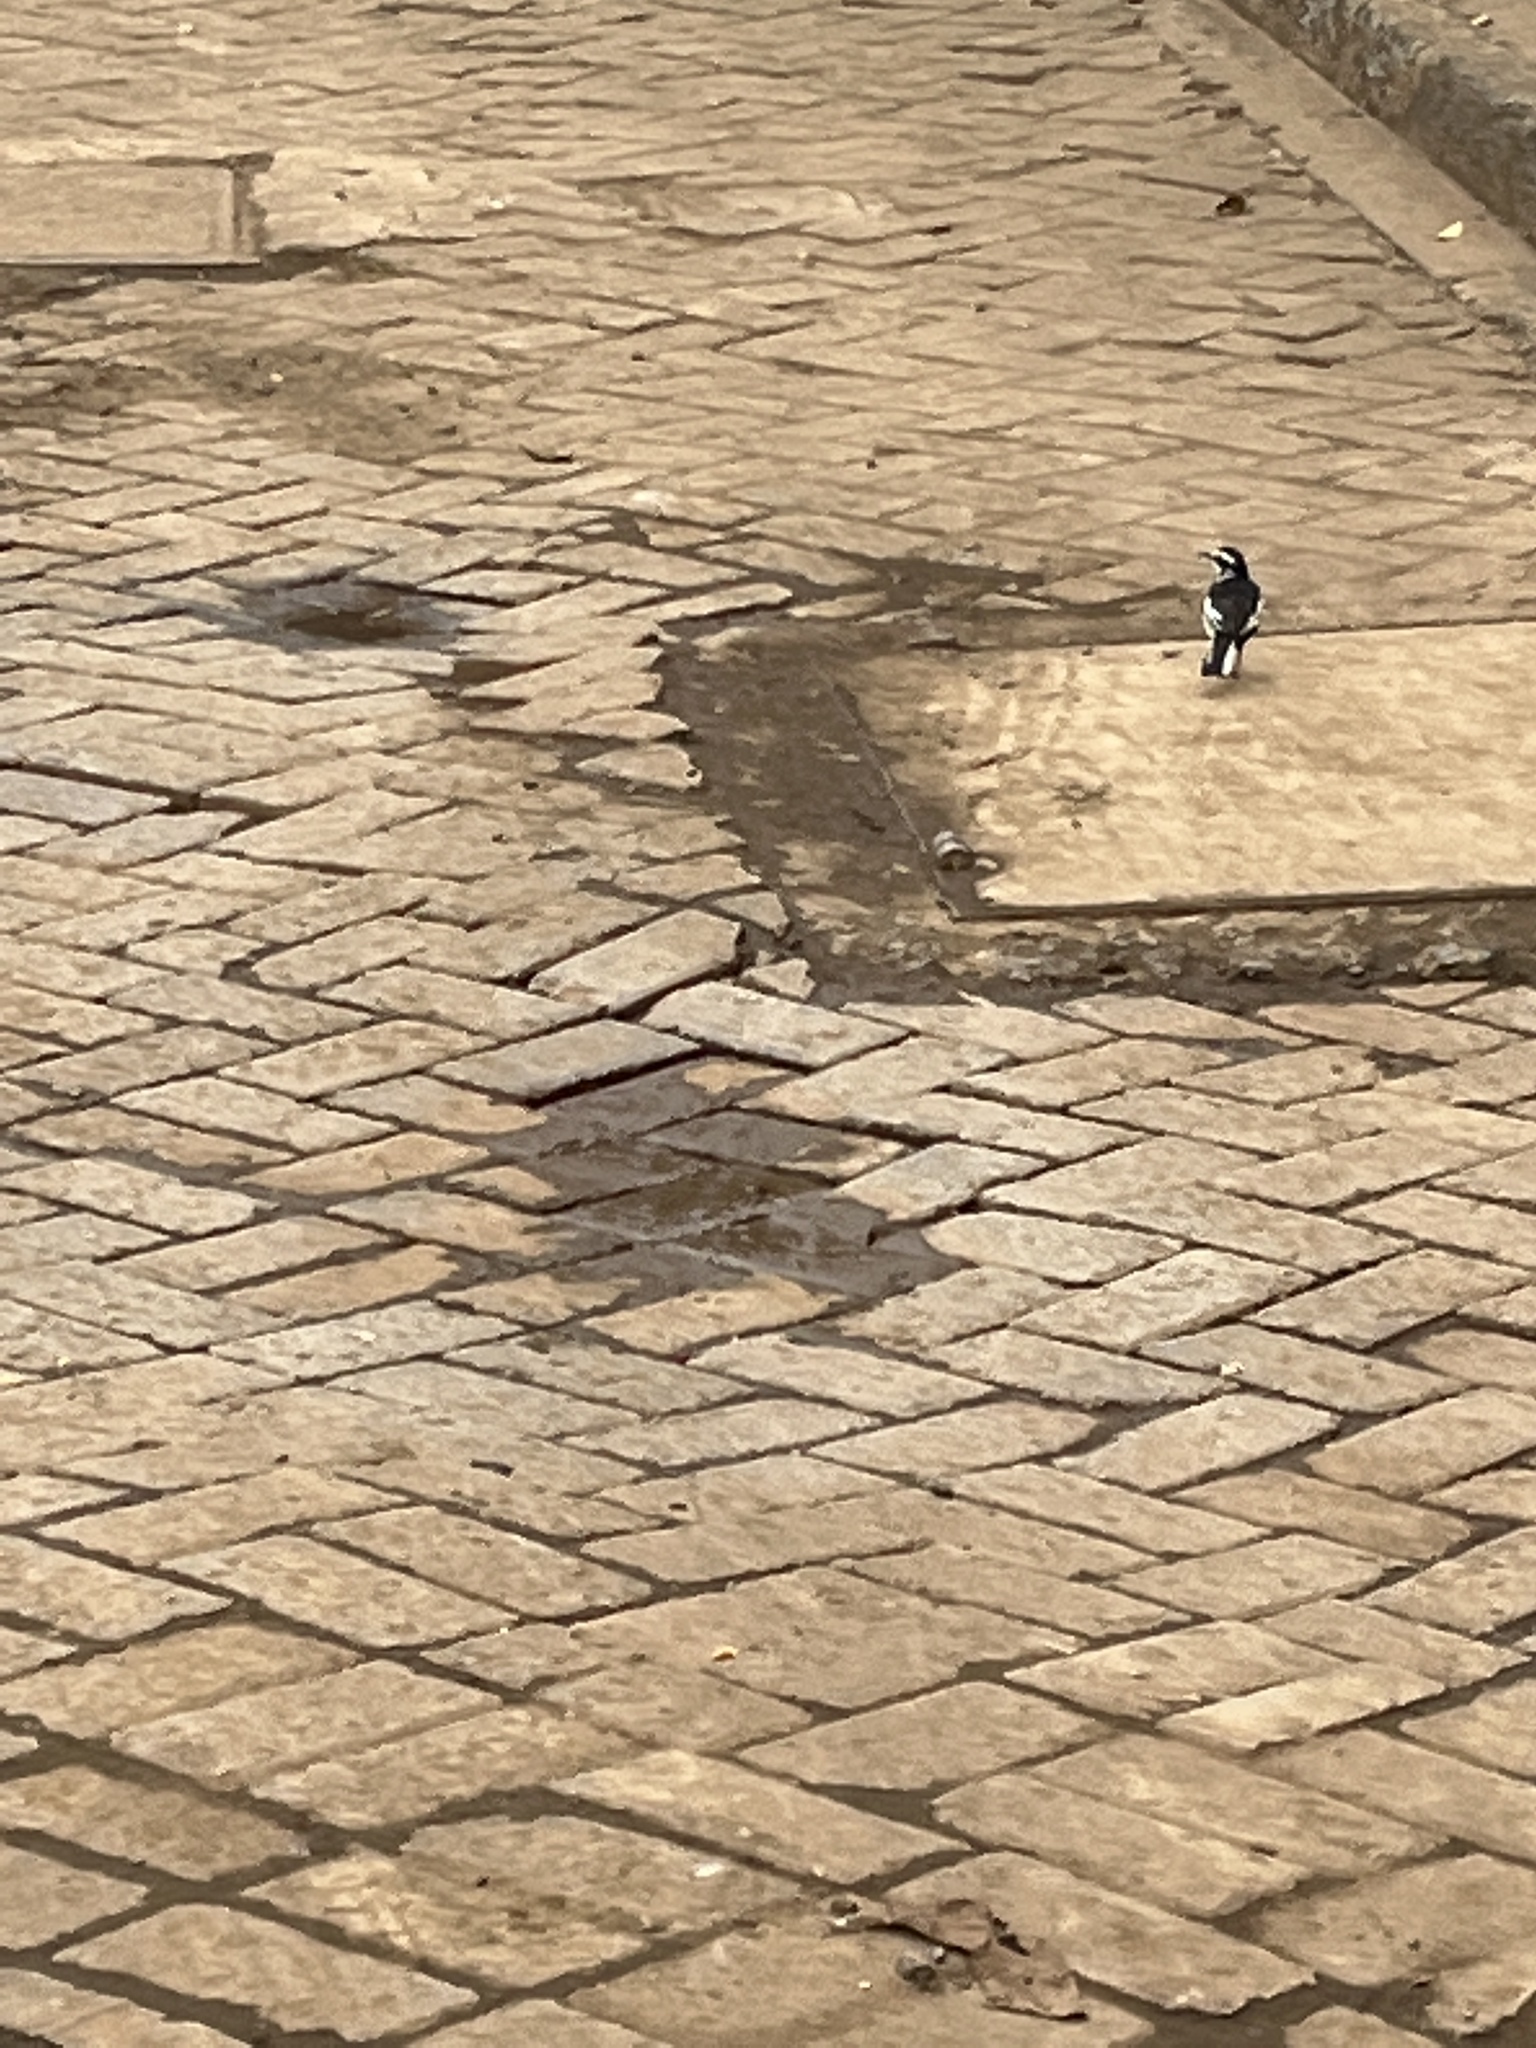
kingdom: Animalia
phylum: Chordata
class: Aves
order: Passeriformes
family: Motacillidae
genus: Motacilla
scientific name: Motacilla aguimp
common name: African pied wagtail
